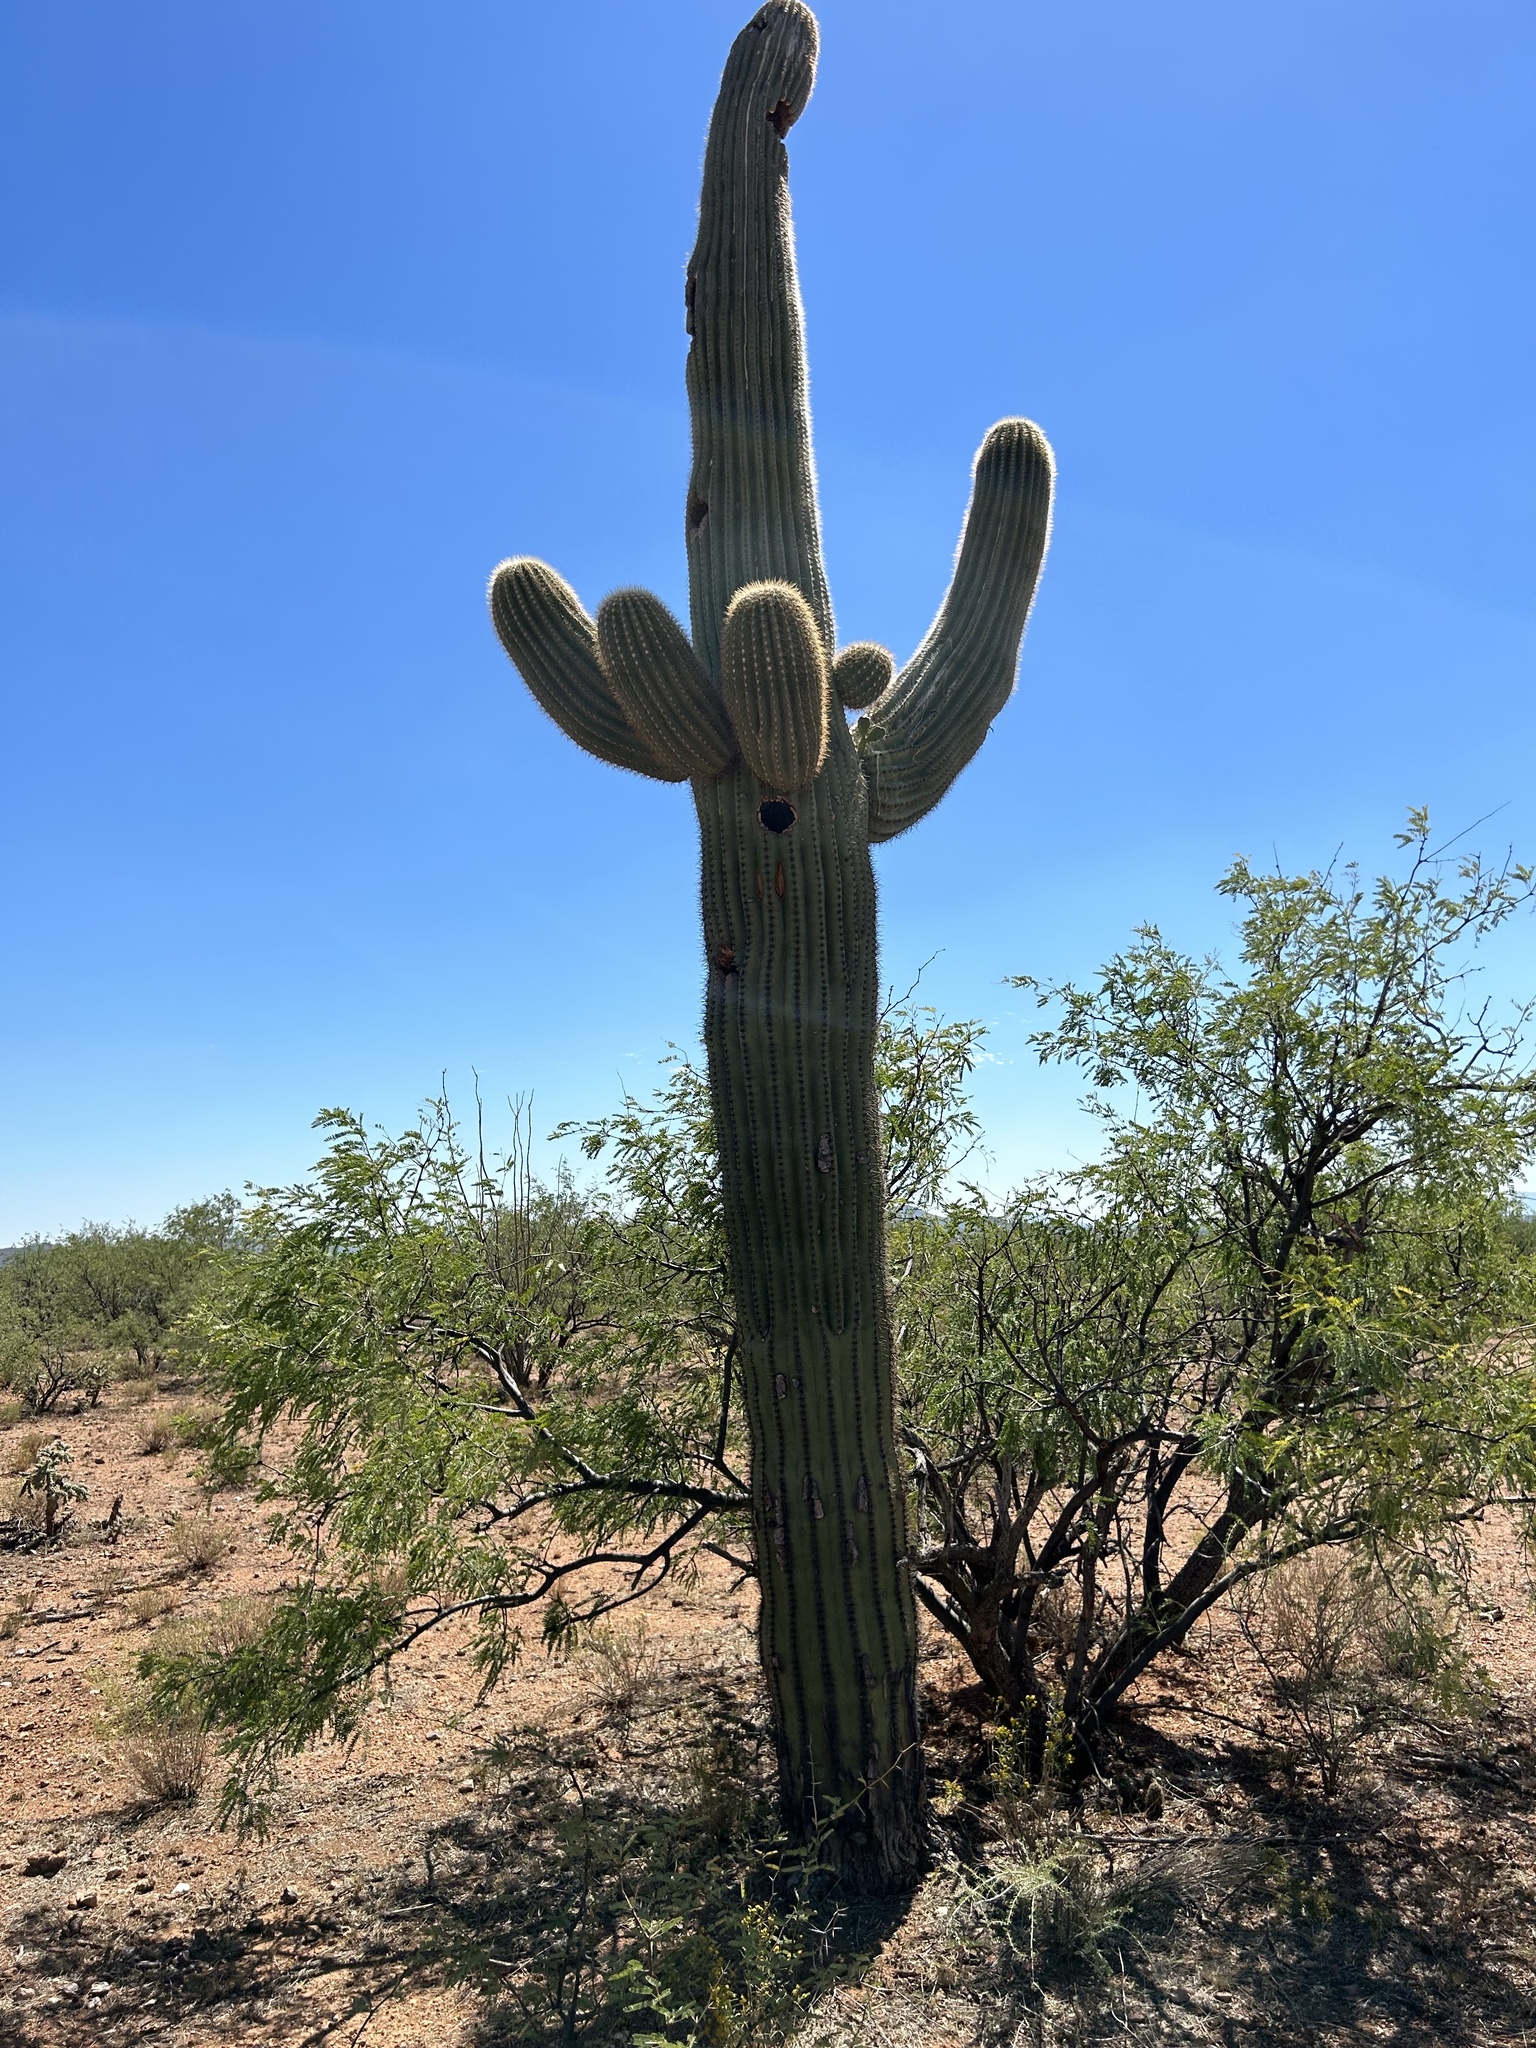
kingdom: Plantae
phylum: Tracheophyta
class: Magnoliopsida
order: Caryophyllales
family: Cactaceae
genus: Carnegiea
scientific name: Carnegiea gigantea
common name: Saguaro
